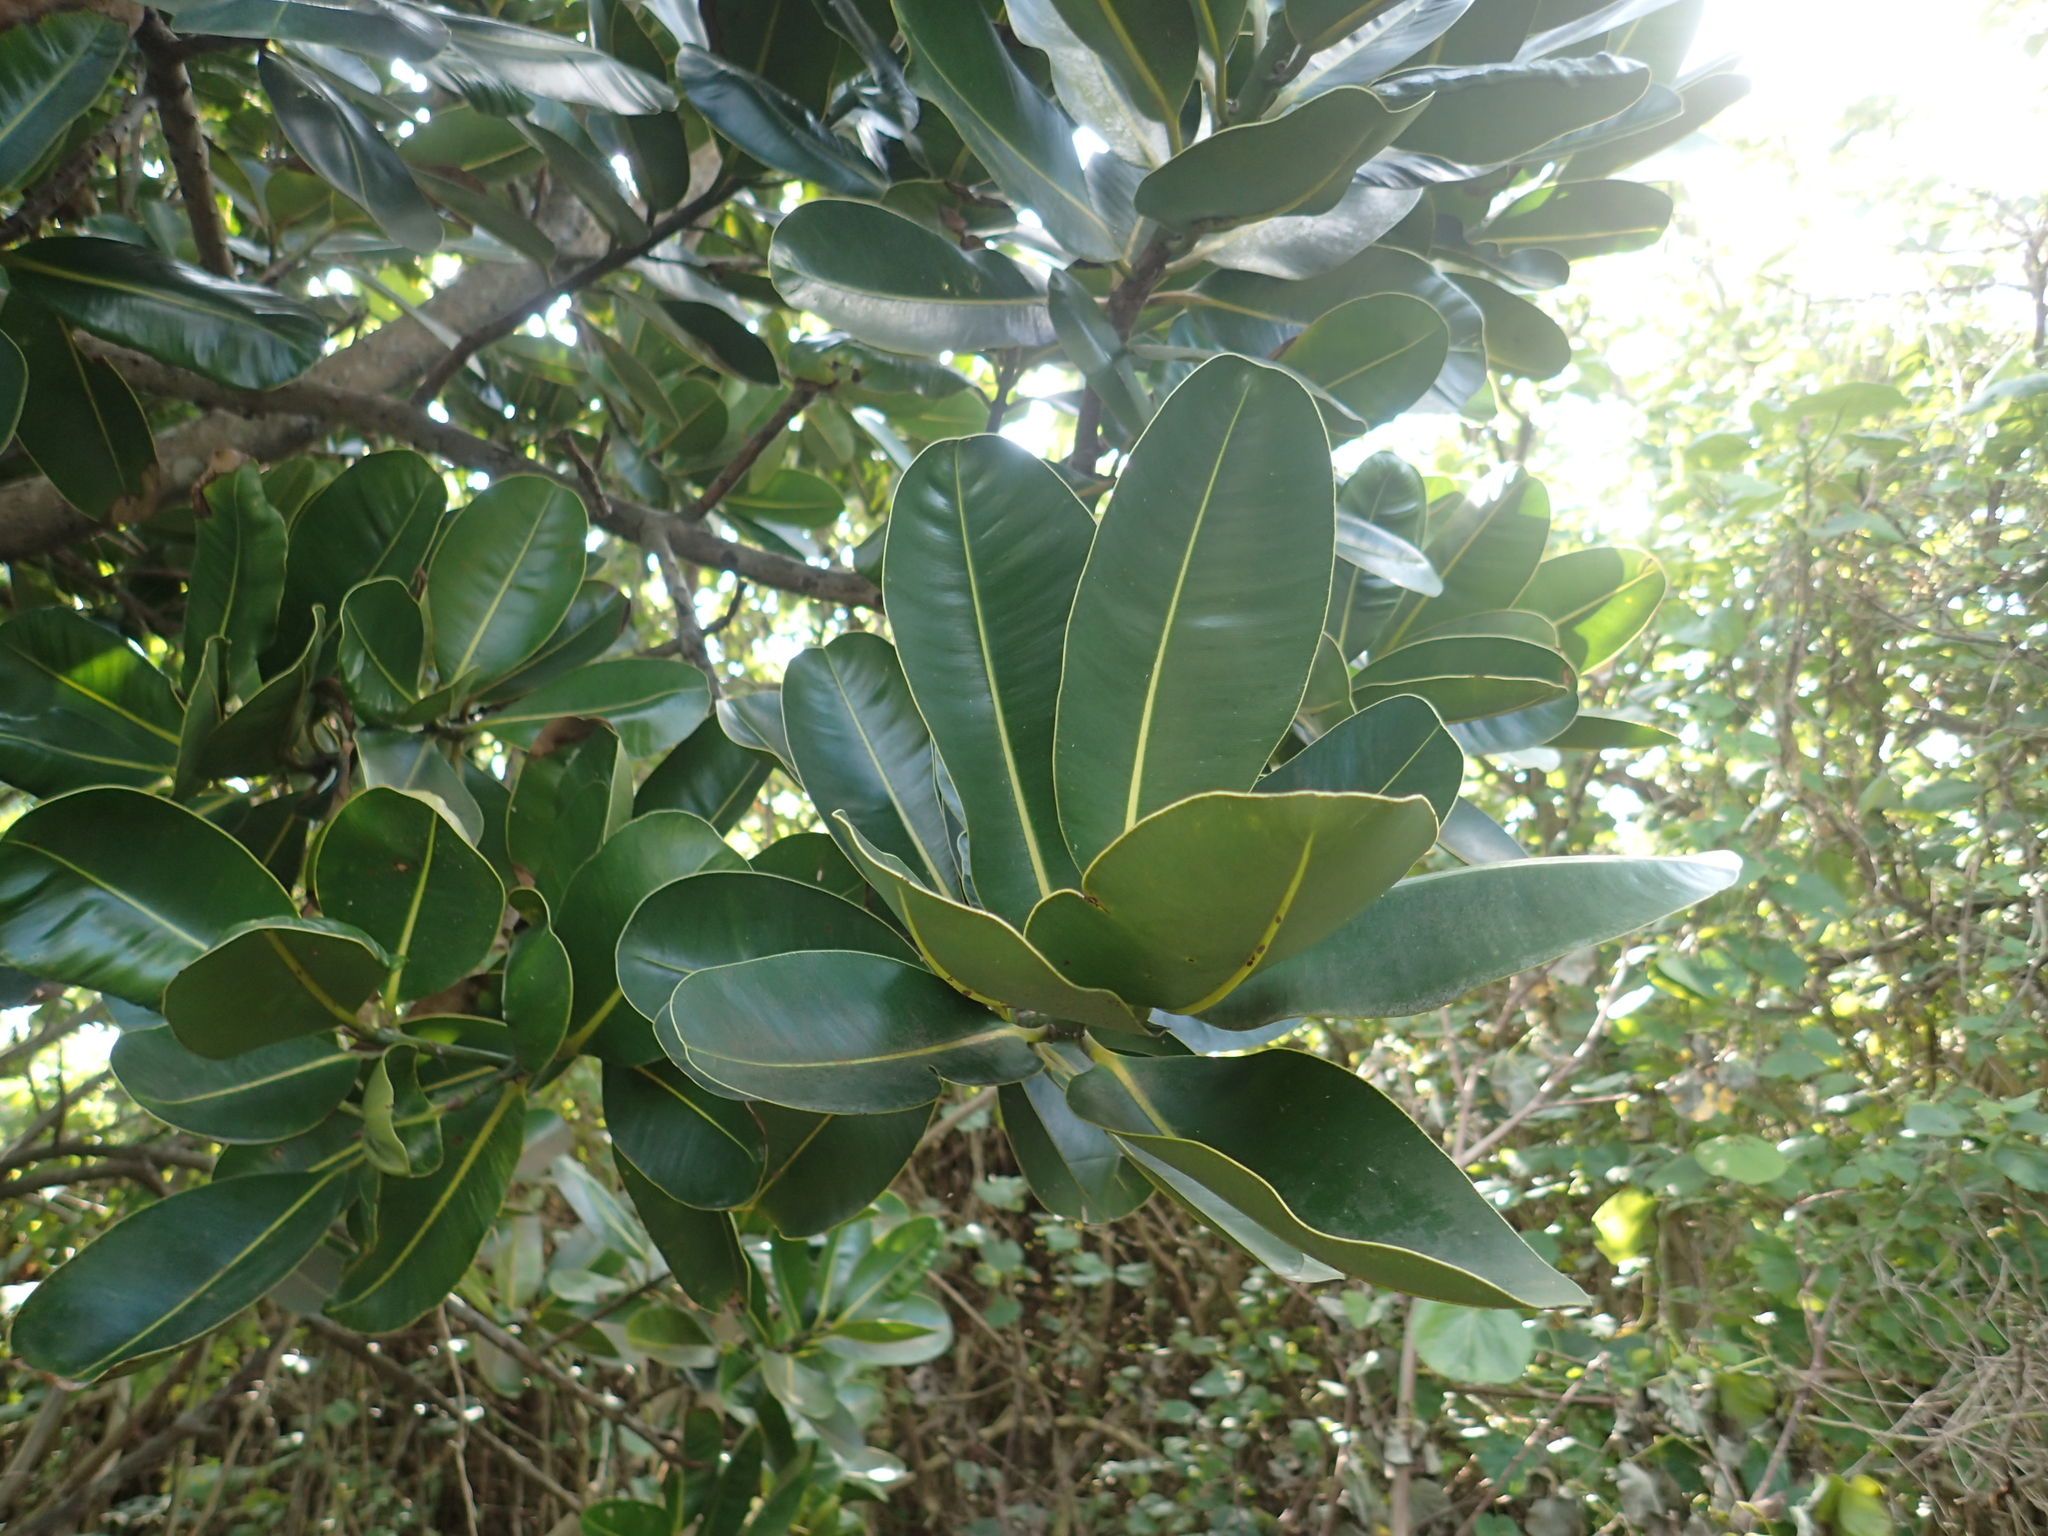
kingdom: Plantae
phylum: Tracheophyta
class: Magnoliopsida
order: Malpighiales
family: Calophyllaceae
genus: Calophyllum
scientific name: Calophyllum inophyllum
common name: Alexandrian laurel
